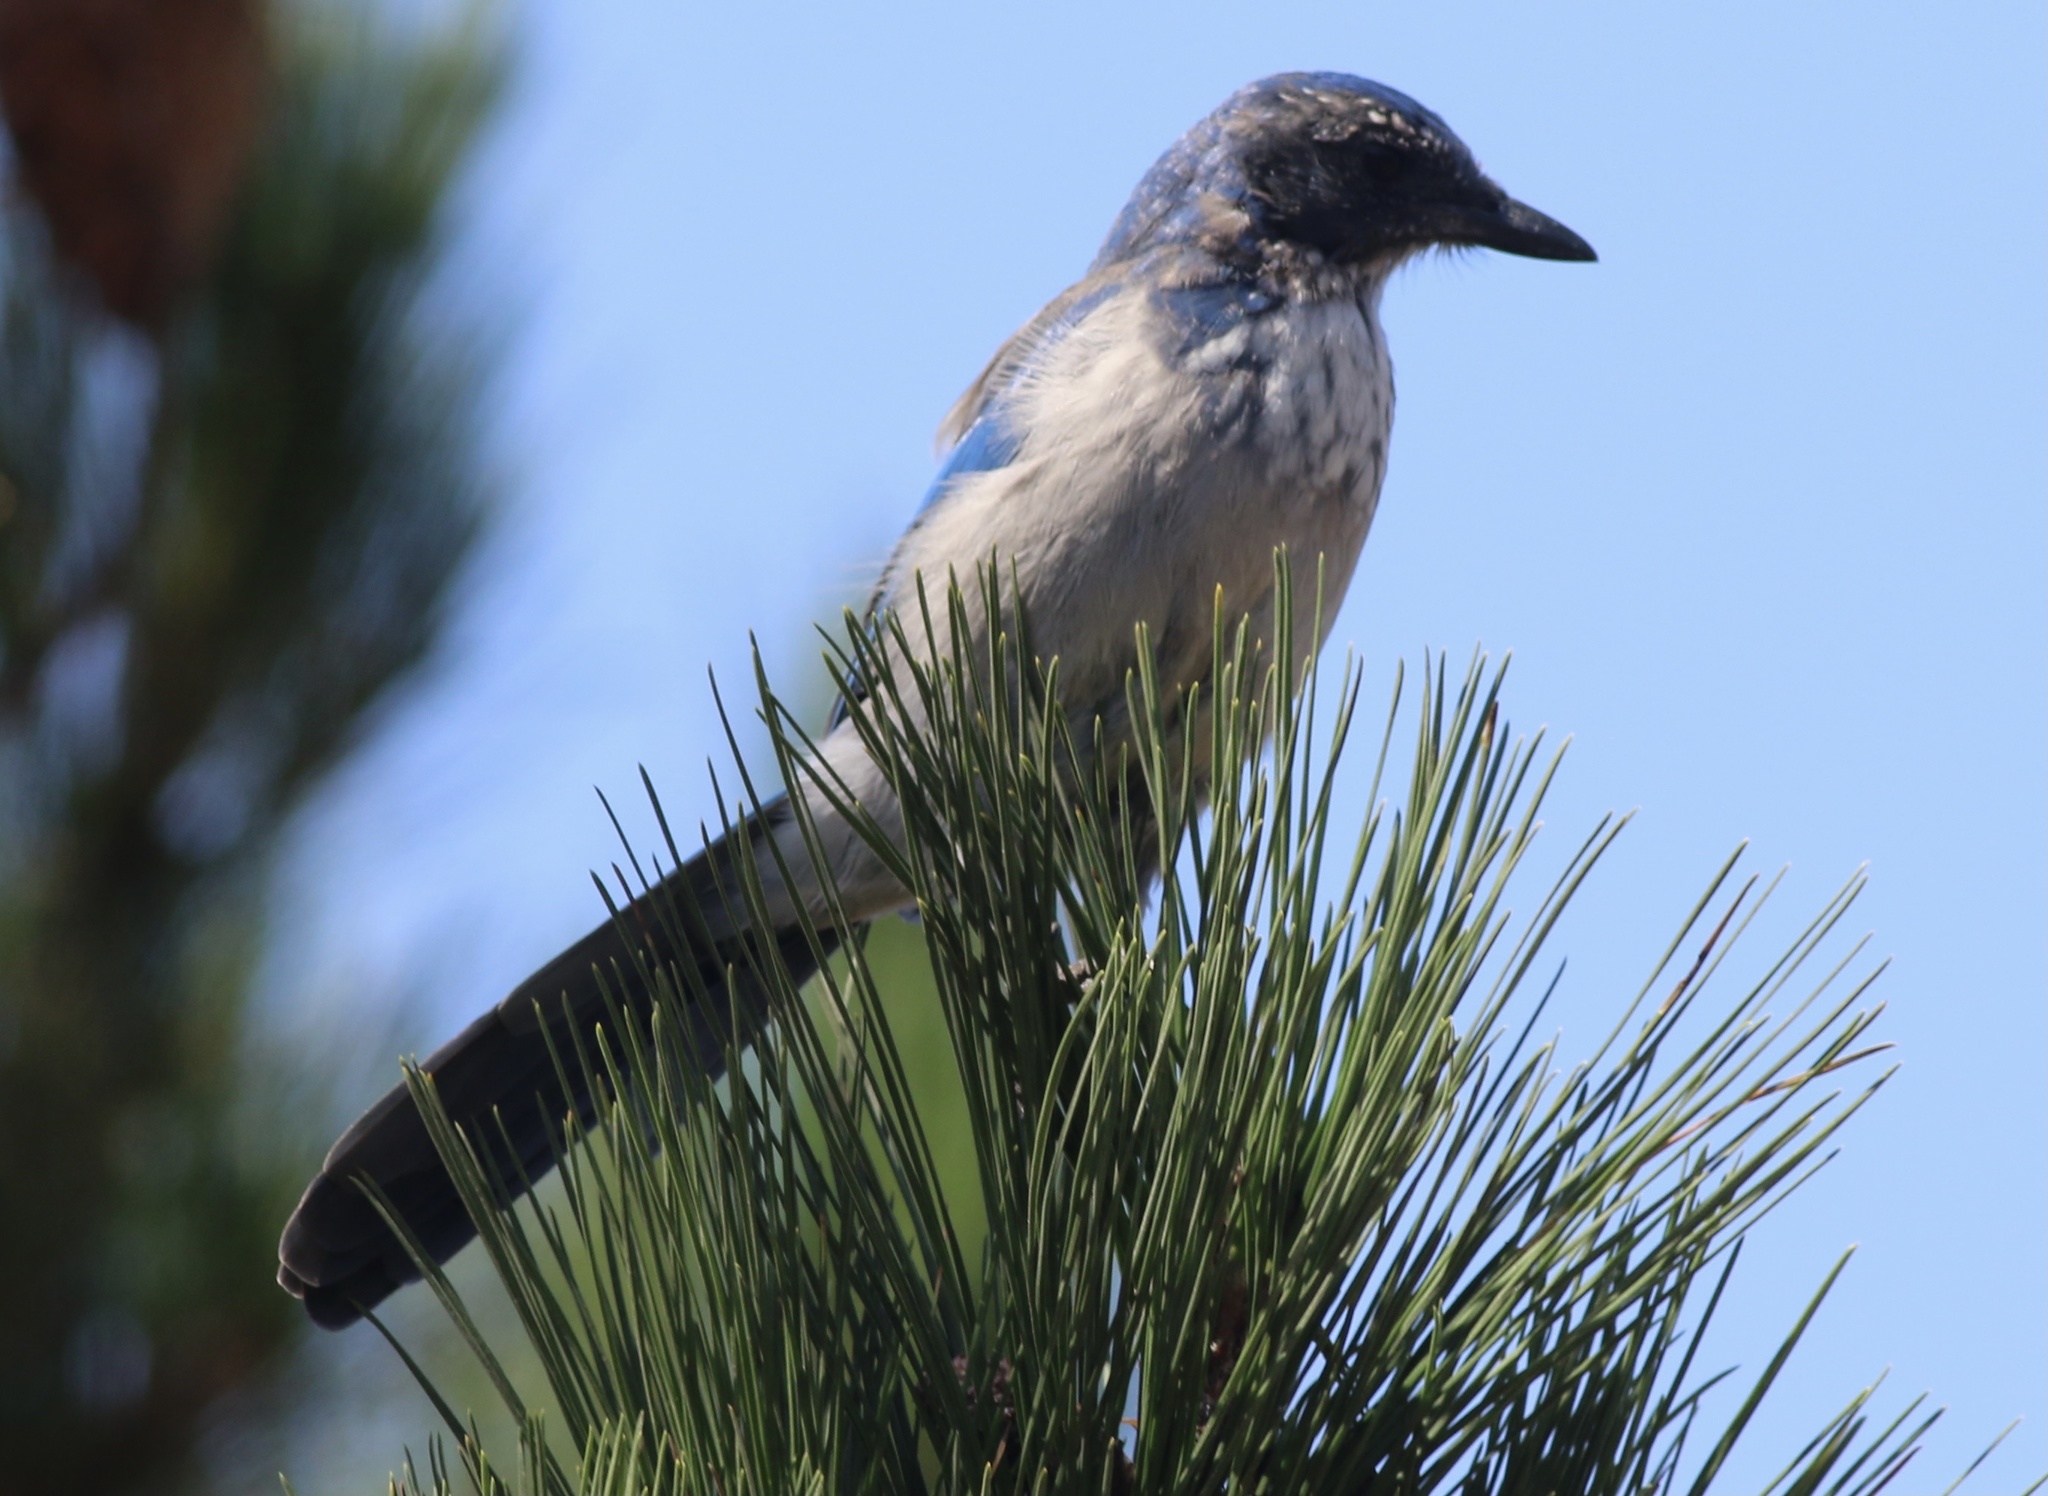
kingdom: Animalia
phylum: Chordata
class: Aves
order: Passeriformes
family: Corvidae
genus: Aphelocoma
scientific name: Aphelocoma californica
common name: California scrub-jay
